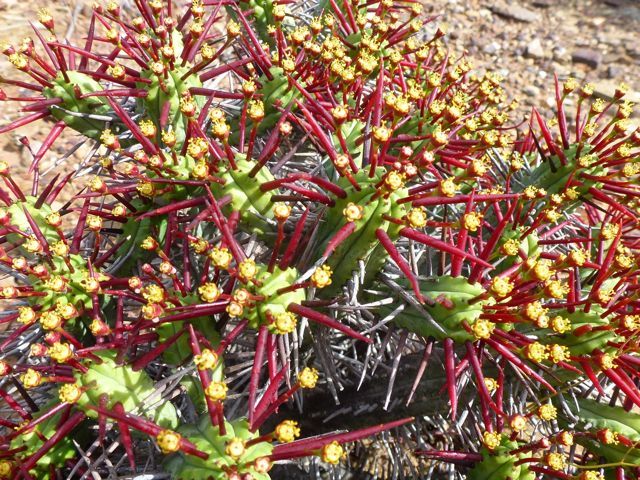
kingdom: Plantae
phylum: Tracheophyta
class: Magnoliopsida
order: Malpighiales
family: Euphorbiaceae
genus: Euphorbia
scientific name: Euphorbia heptagona
